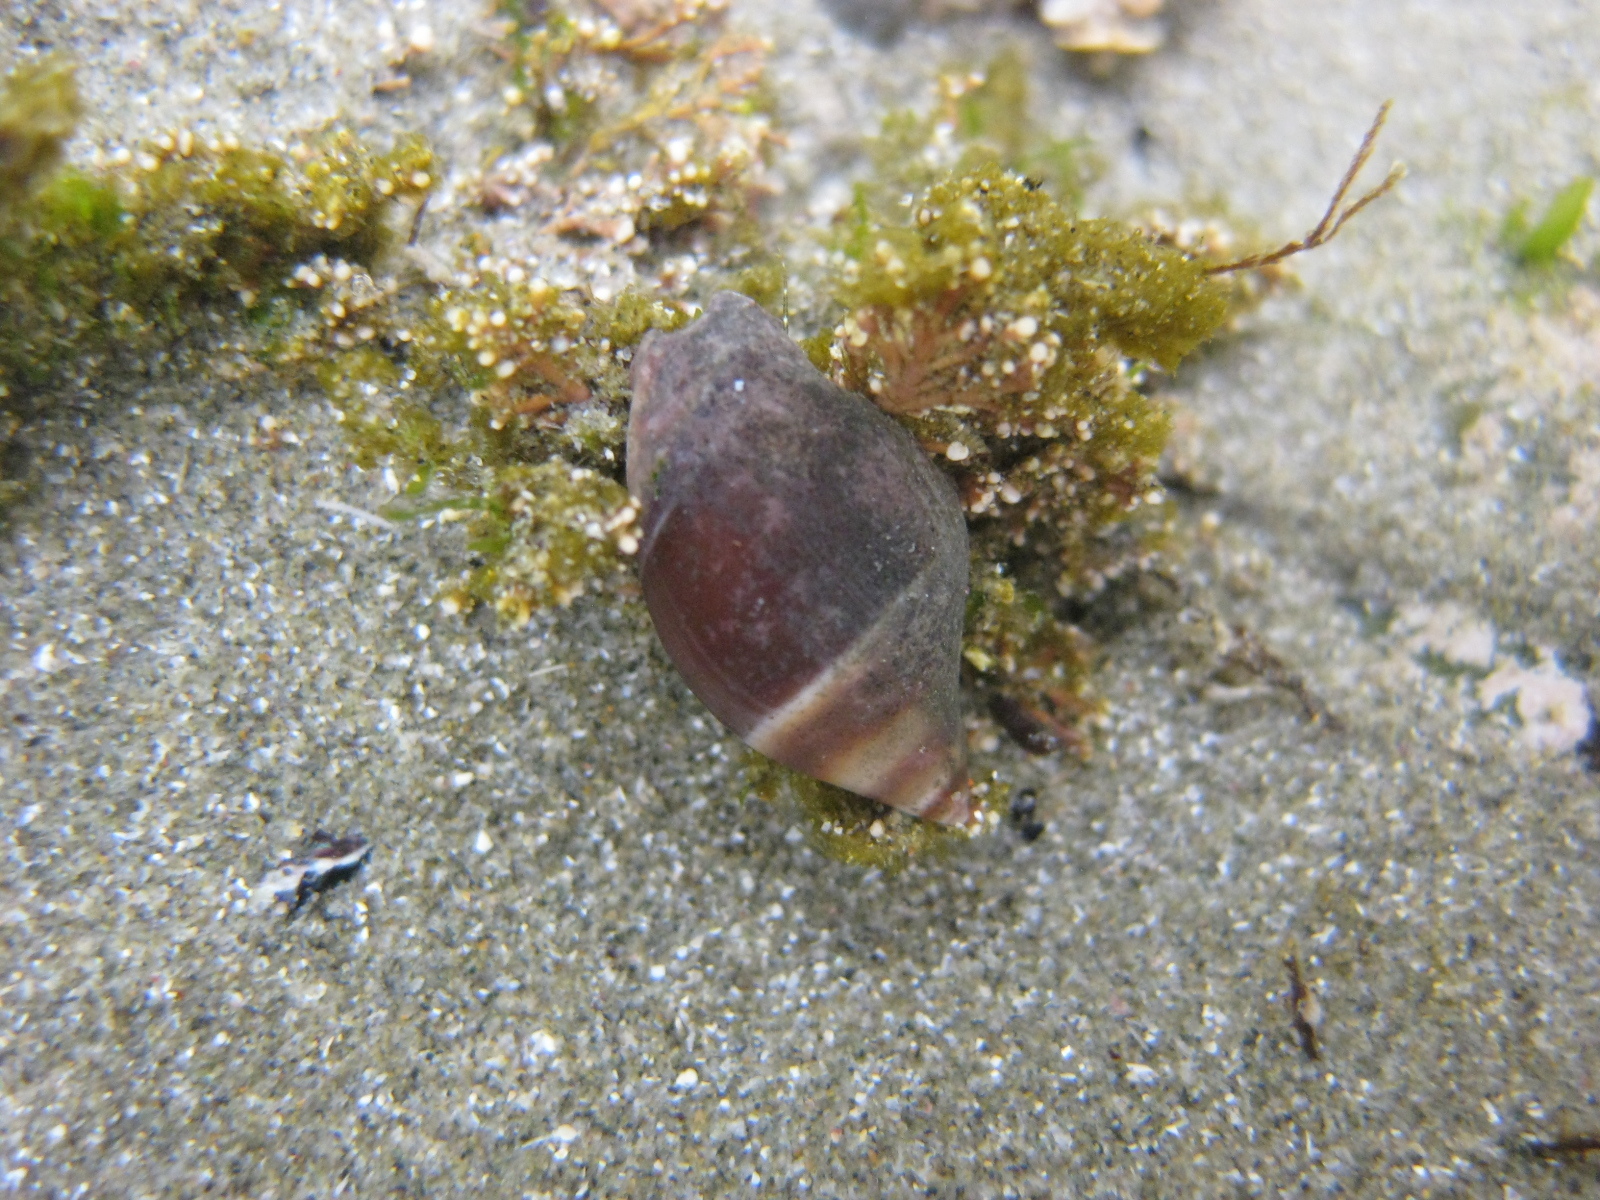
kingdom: Animalia
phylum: Mollusca
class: Gastropoda
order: Neogastropoda
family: Ancillariidae
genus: Amalda
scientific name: Amalda depressa
